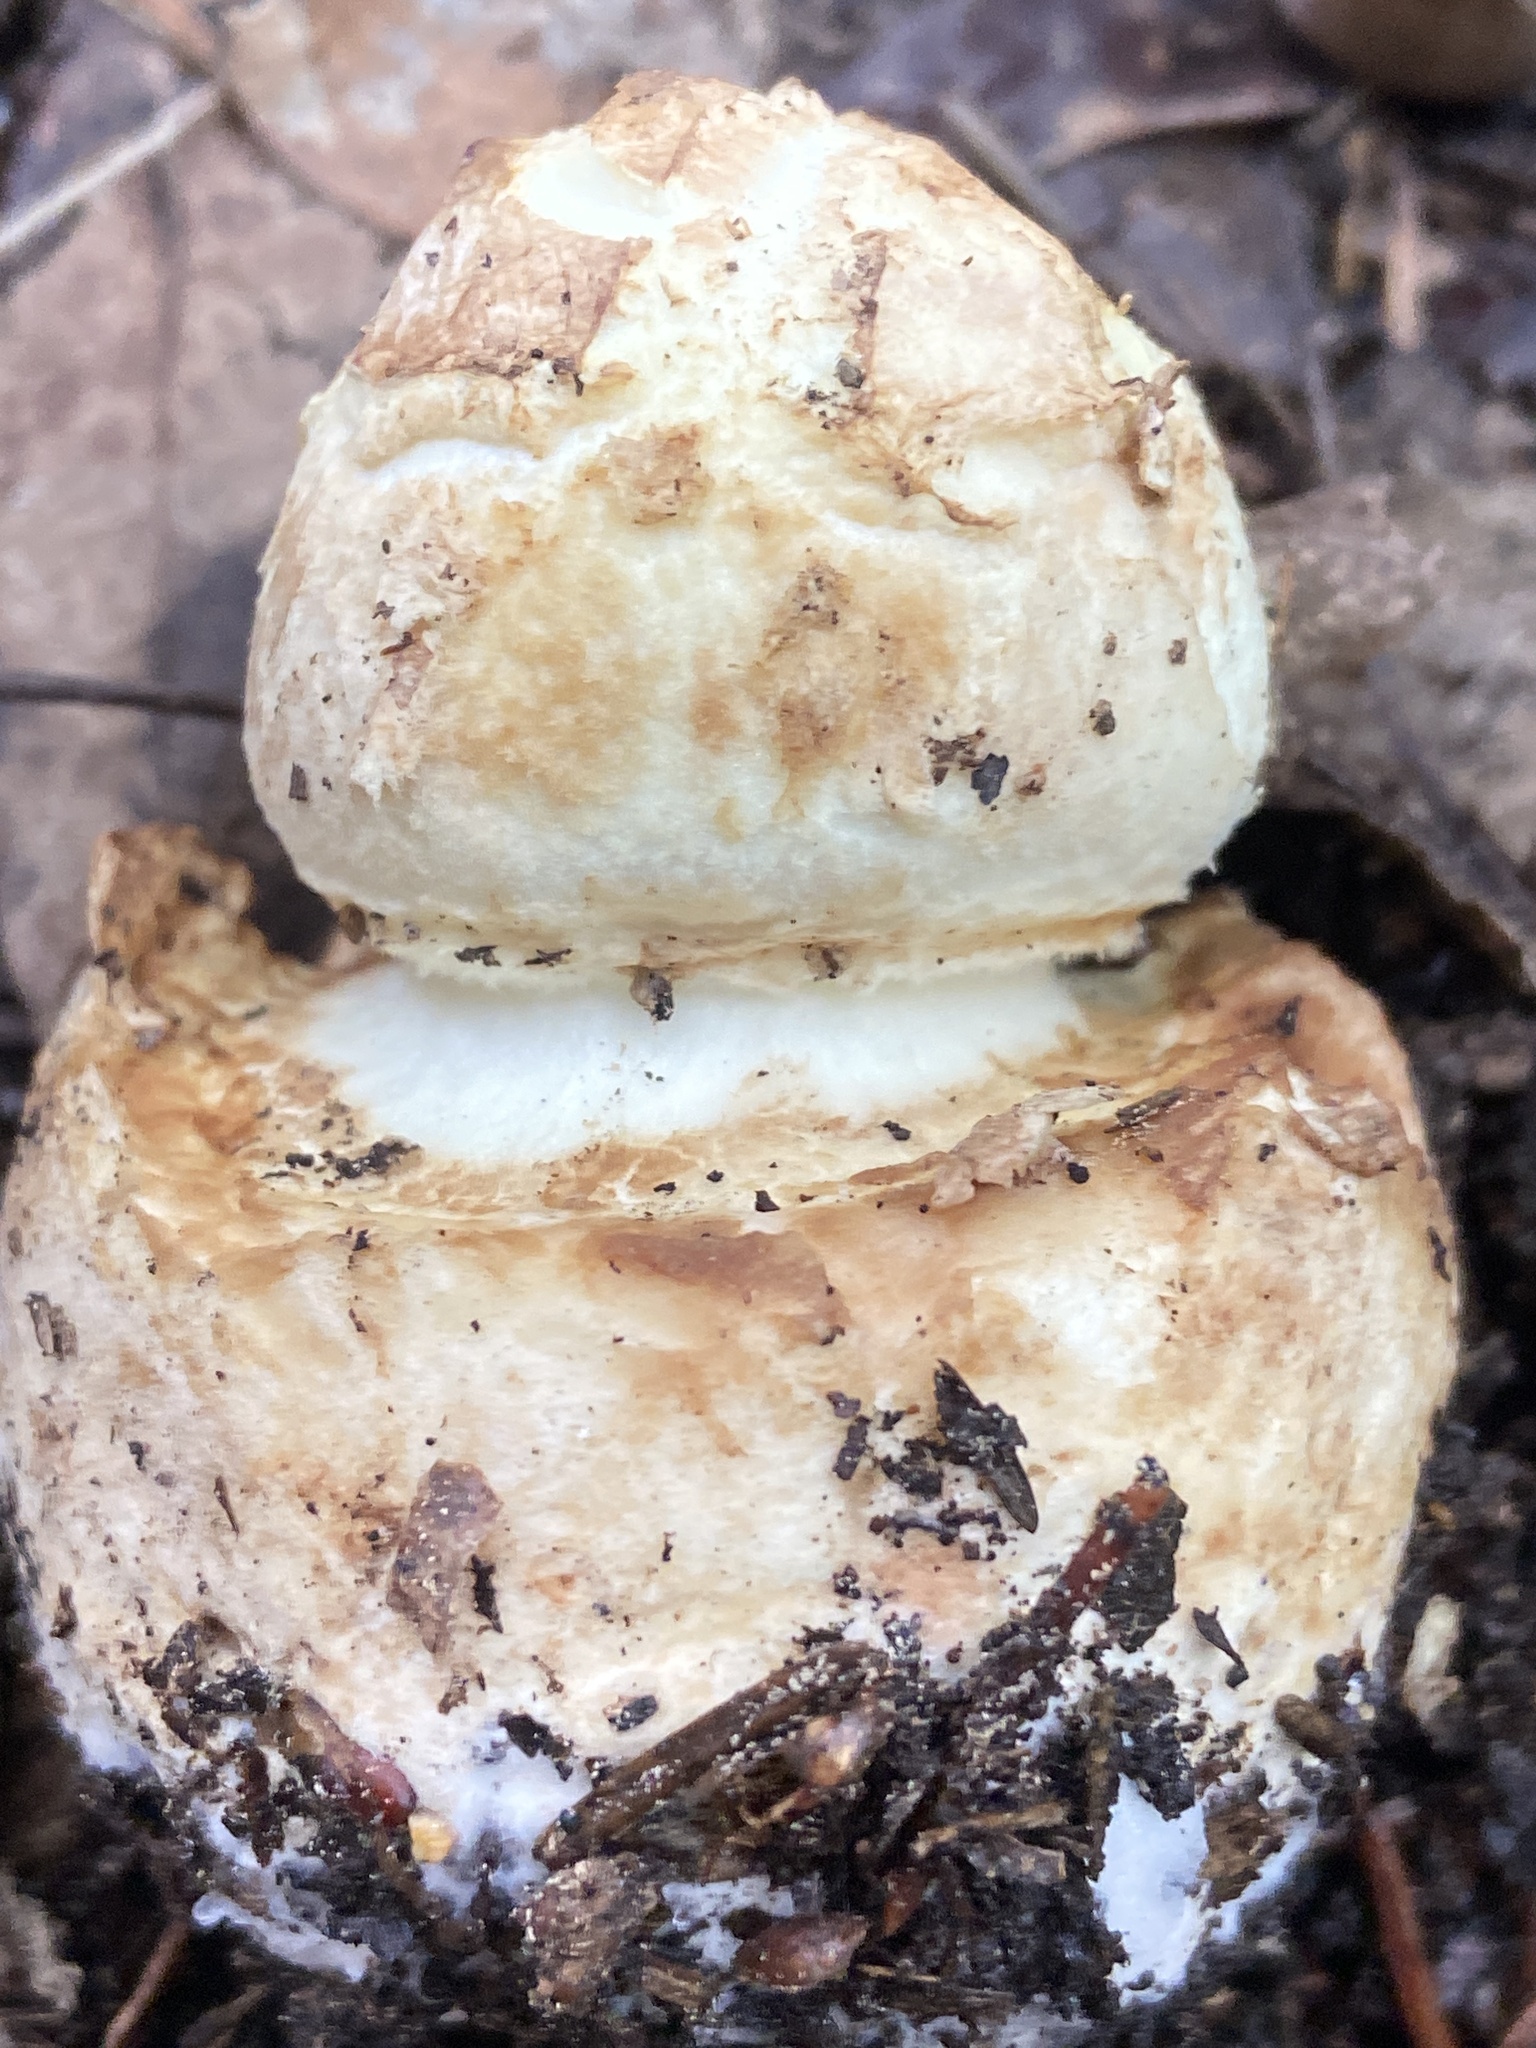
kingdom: Fungi
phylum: Basidiomycota
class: Agaricomycetes
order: Agaricales
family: Amanitaceae
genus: Amanita
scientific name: Amanita citrina
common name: False death-cap
